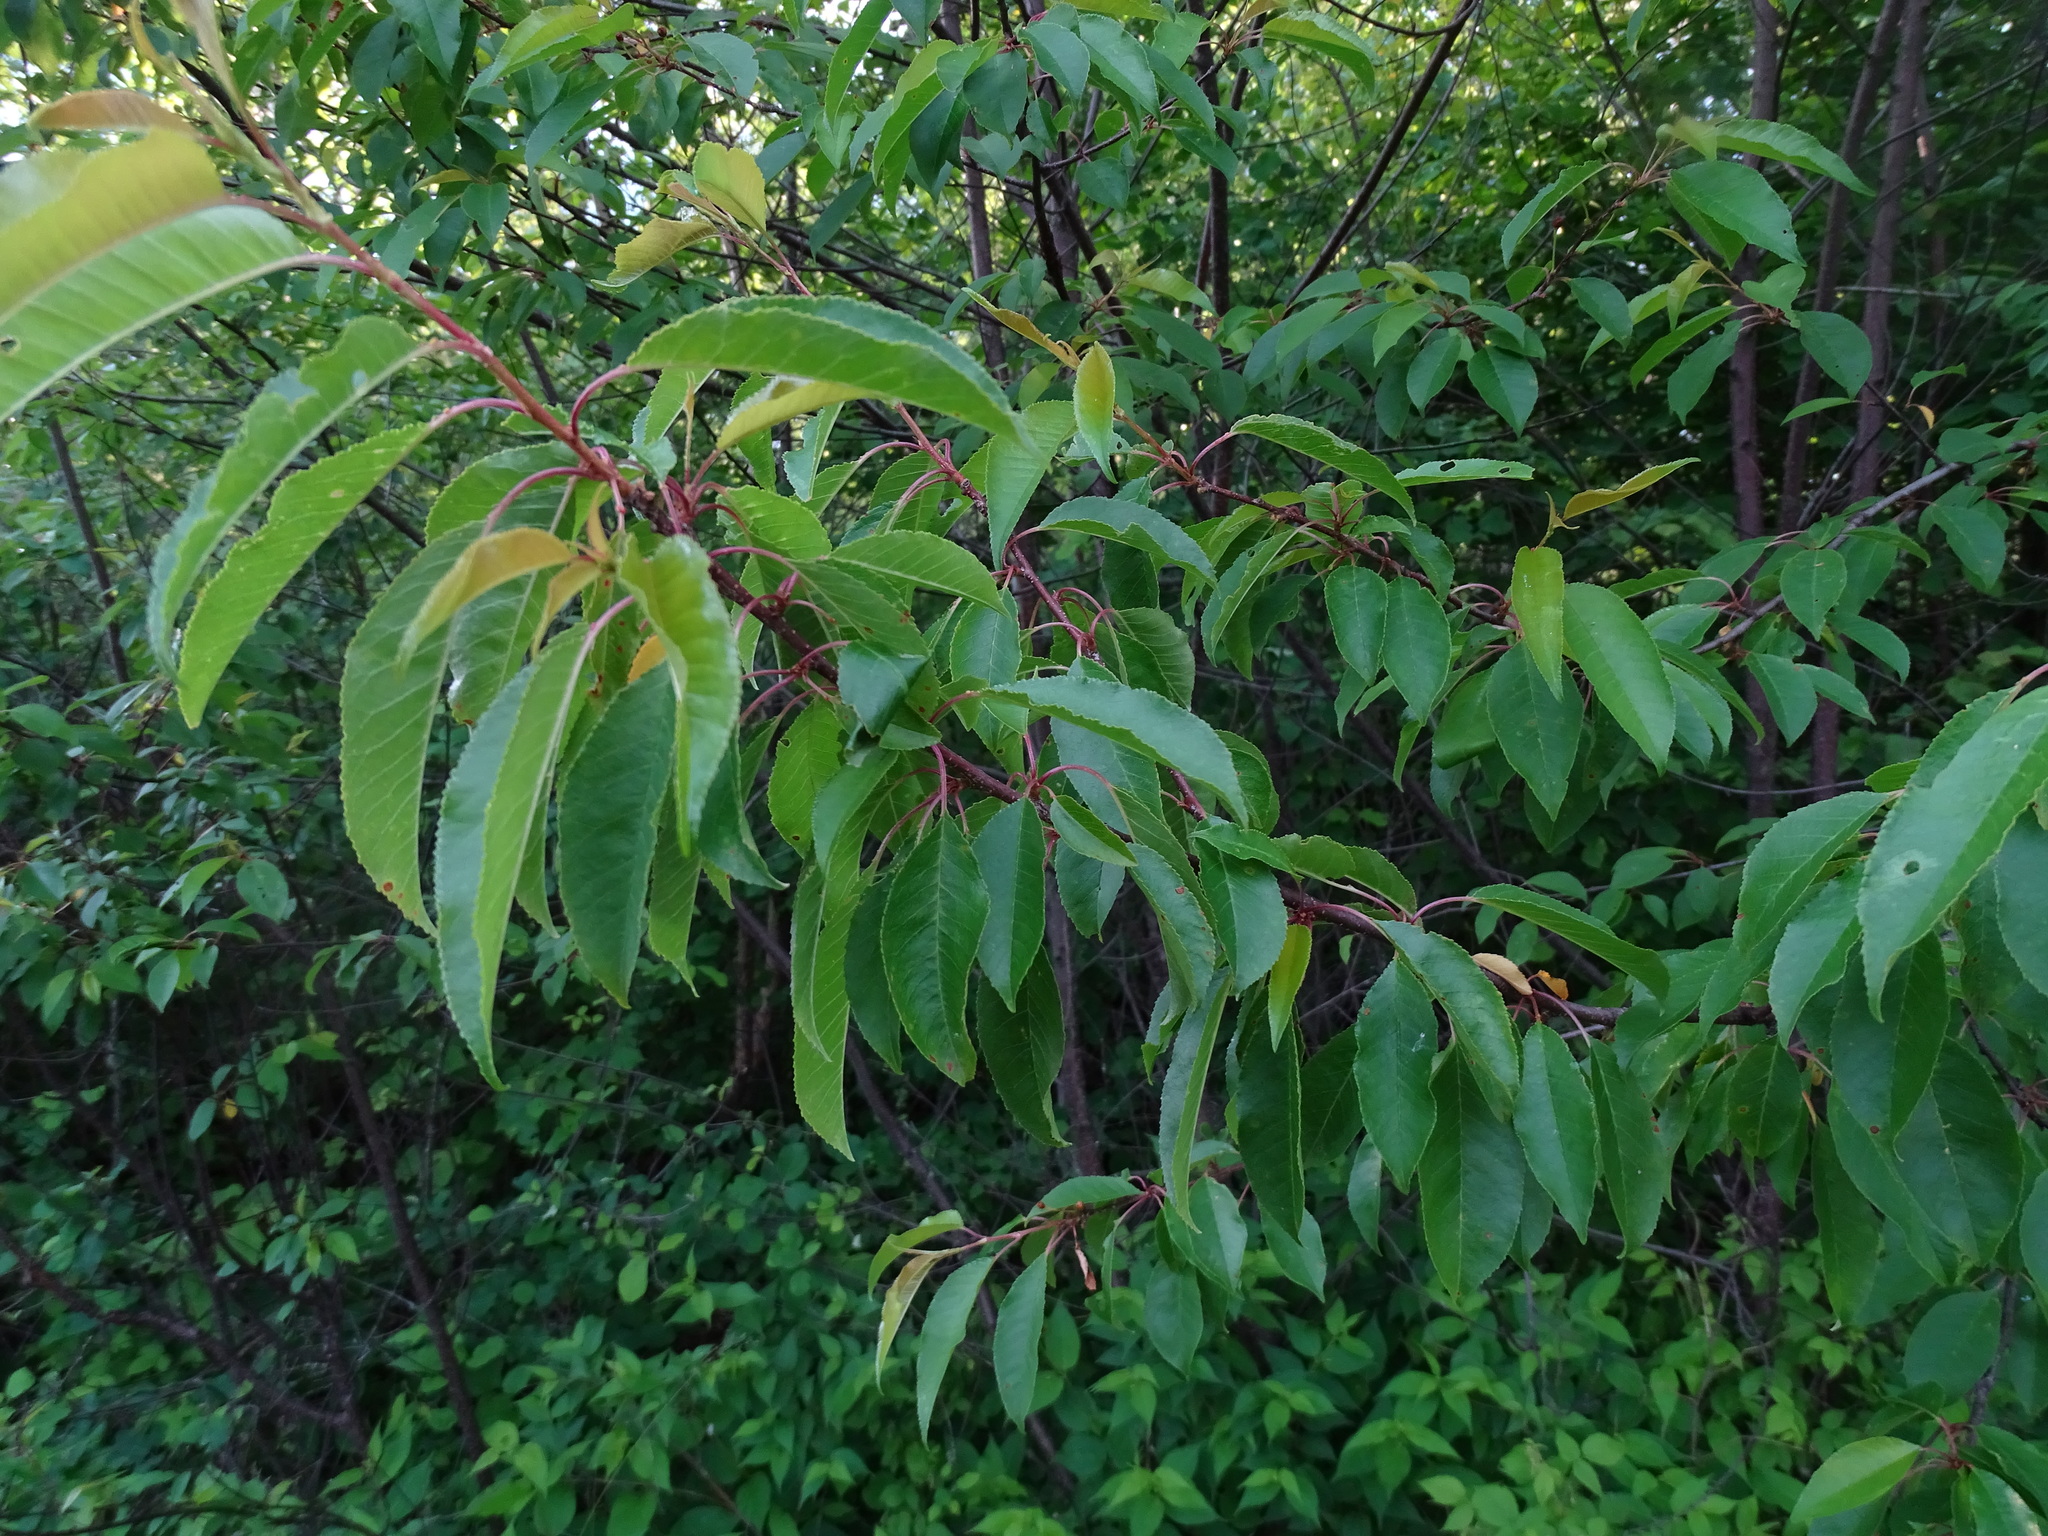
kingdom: Plantae
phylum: Tracheophyta
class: Magnoliopsida
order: Rosales
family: Rosaceae
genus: Prunus
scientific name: Prunus pensylvanica
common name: Pin cherry
